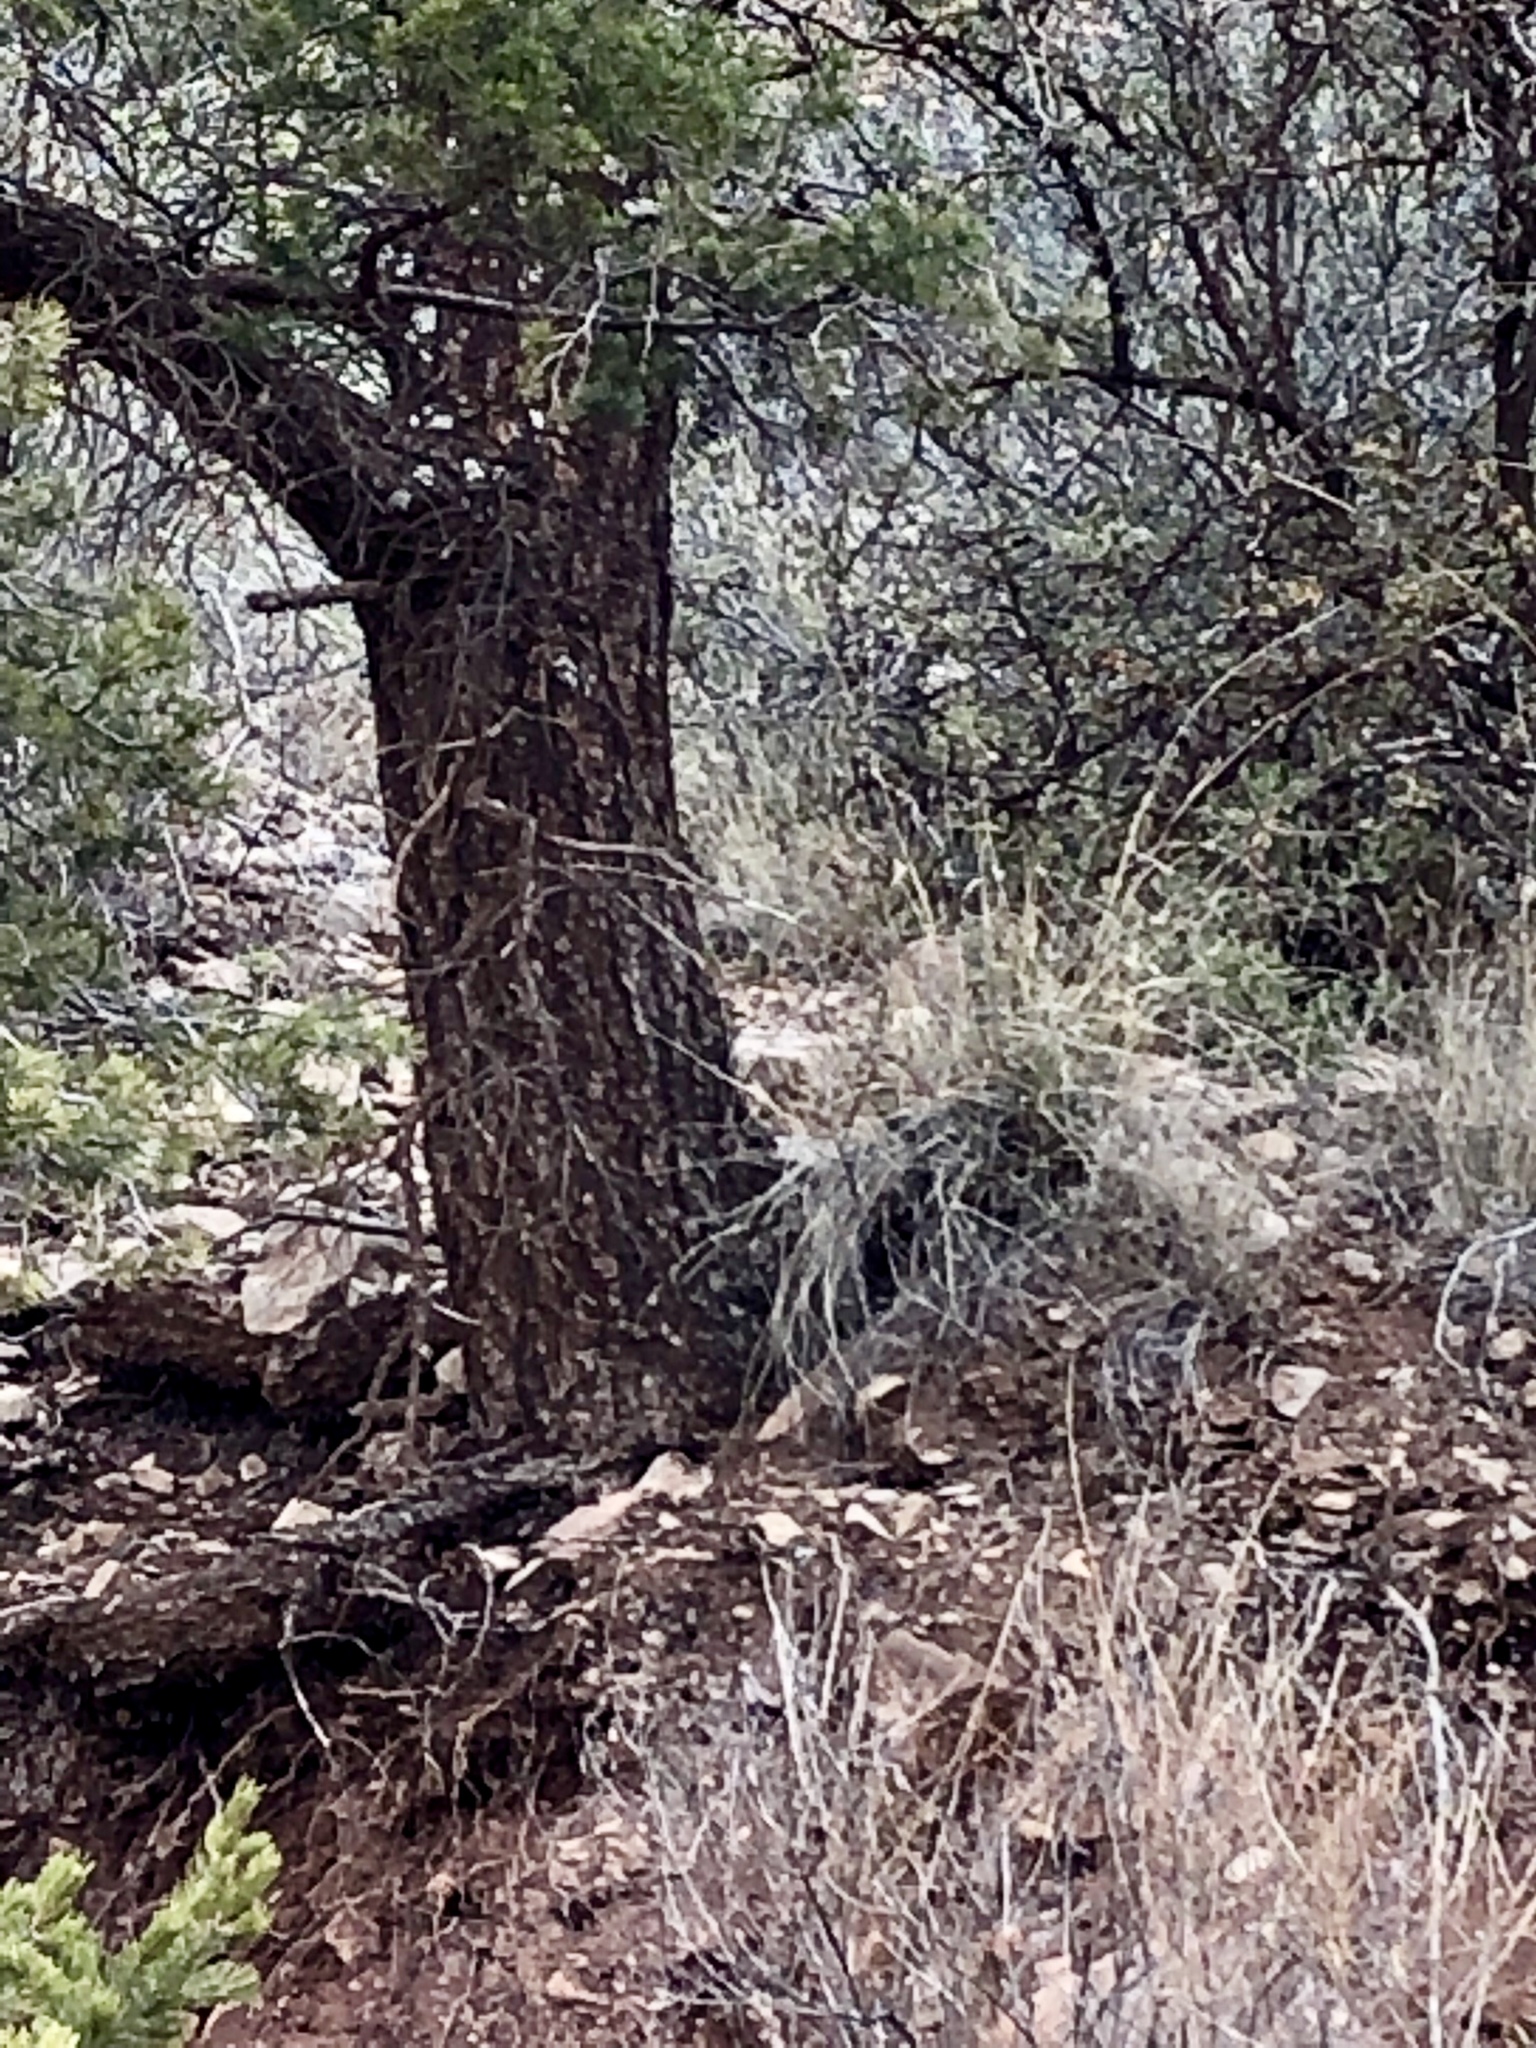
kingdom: Plantae
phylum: Tracheophyta
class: Pinopsida
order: Pinales
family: Pinaceae
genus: Pinus
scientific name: Pinus edulis
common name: Colorado pinyon
